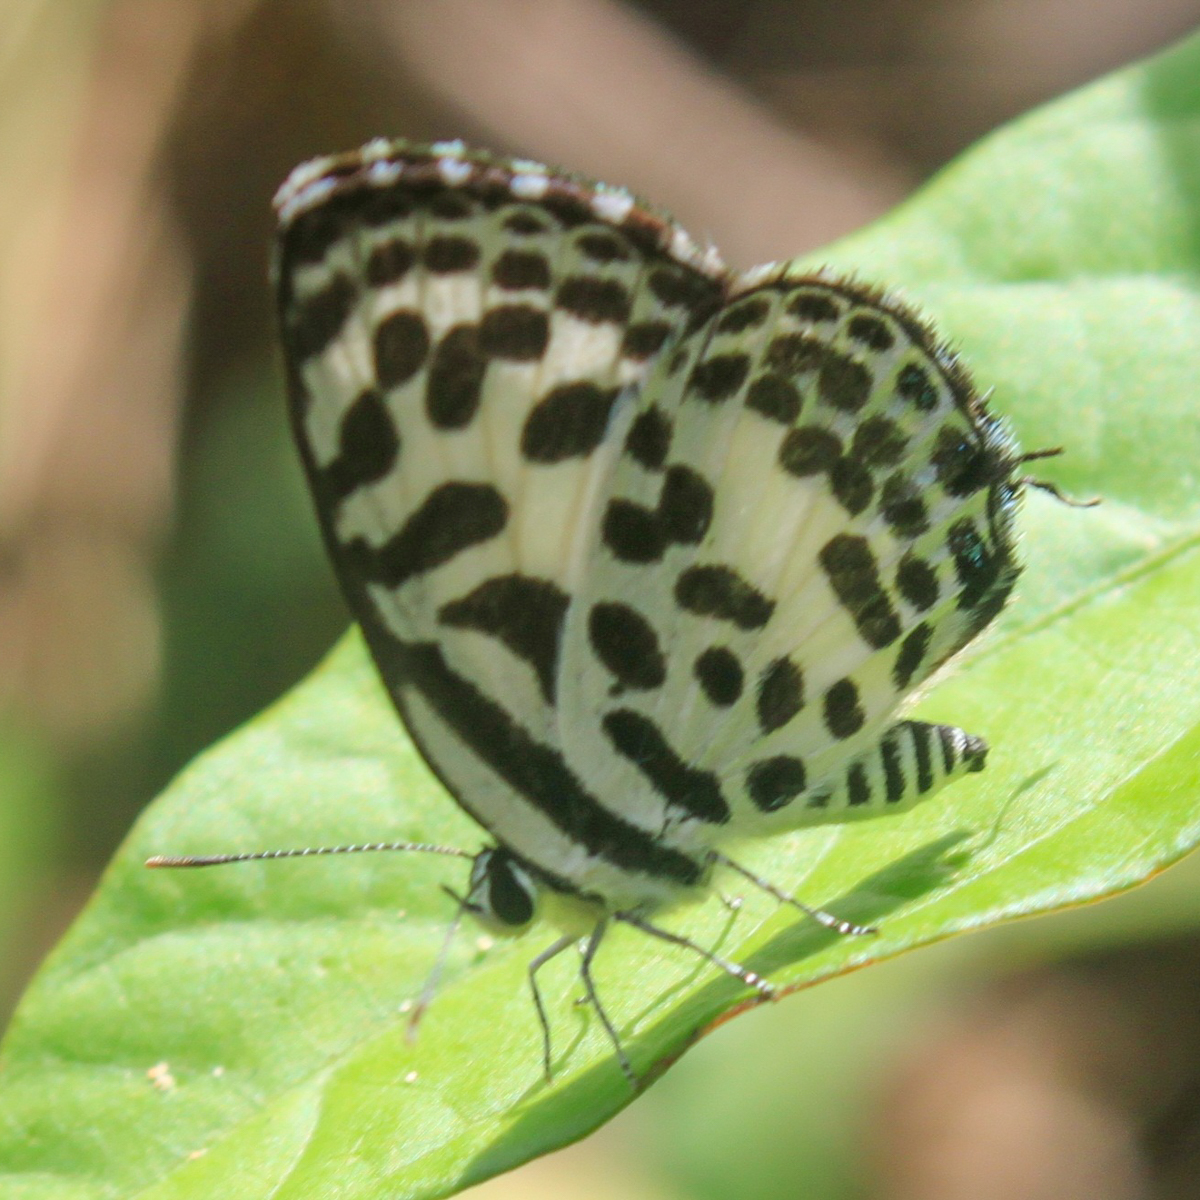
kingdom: Animalia
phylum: Arthropoda
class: Insecta
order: Lepidoptera
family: Lycaenidae
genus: Castalius
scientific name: Castalius rosimon
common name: Common pierrot
